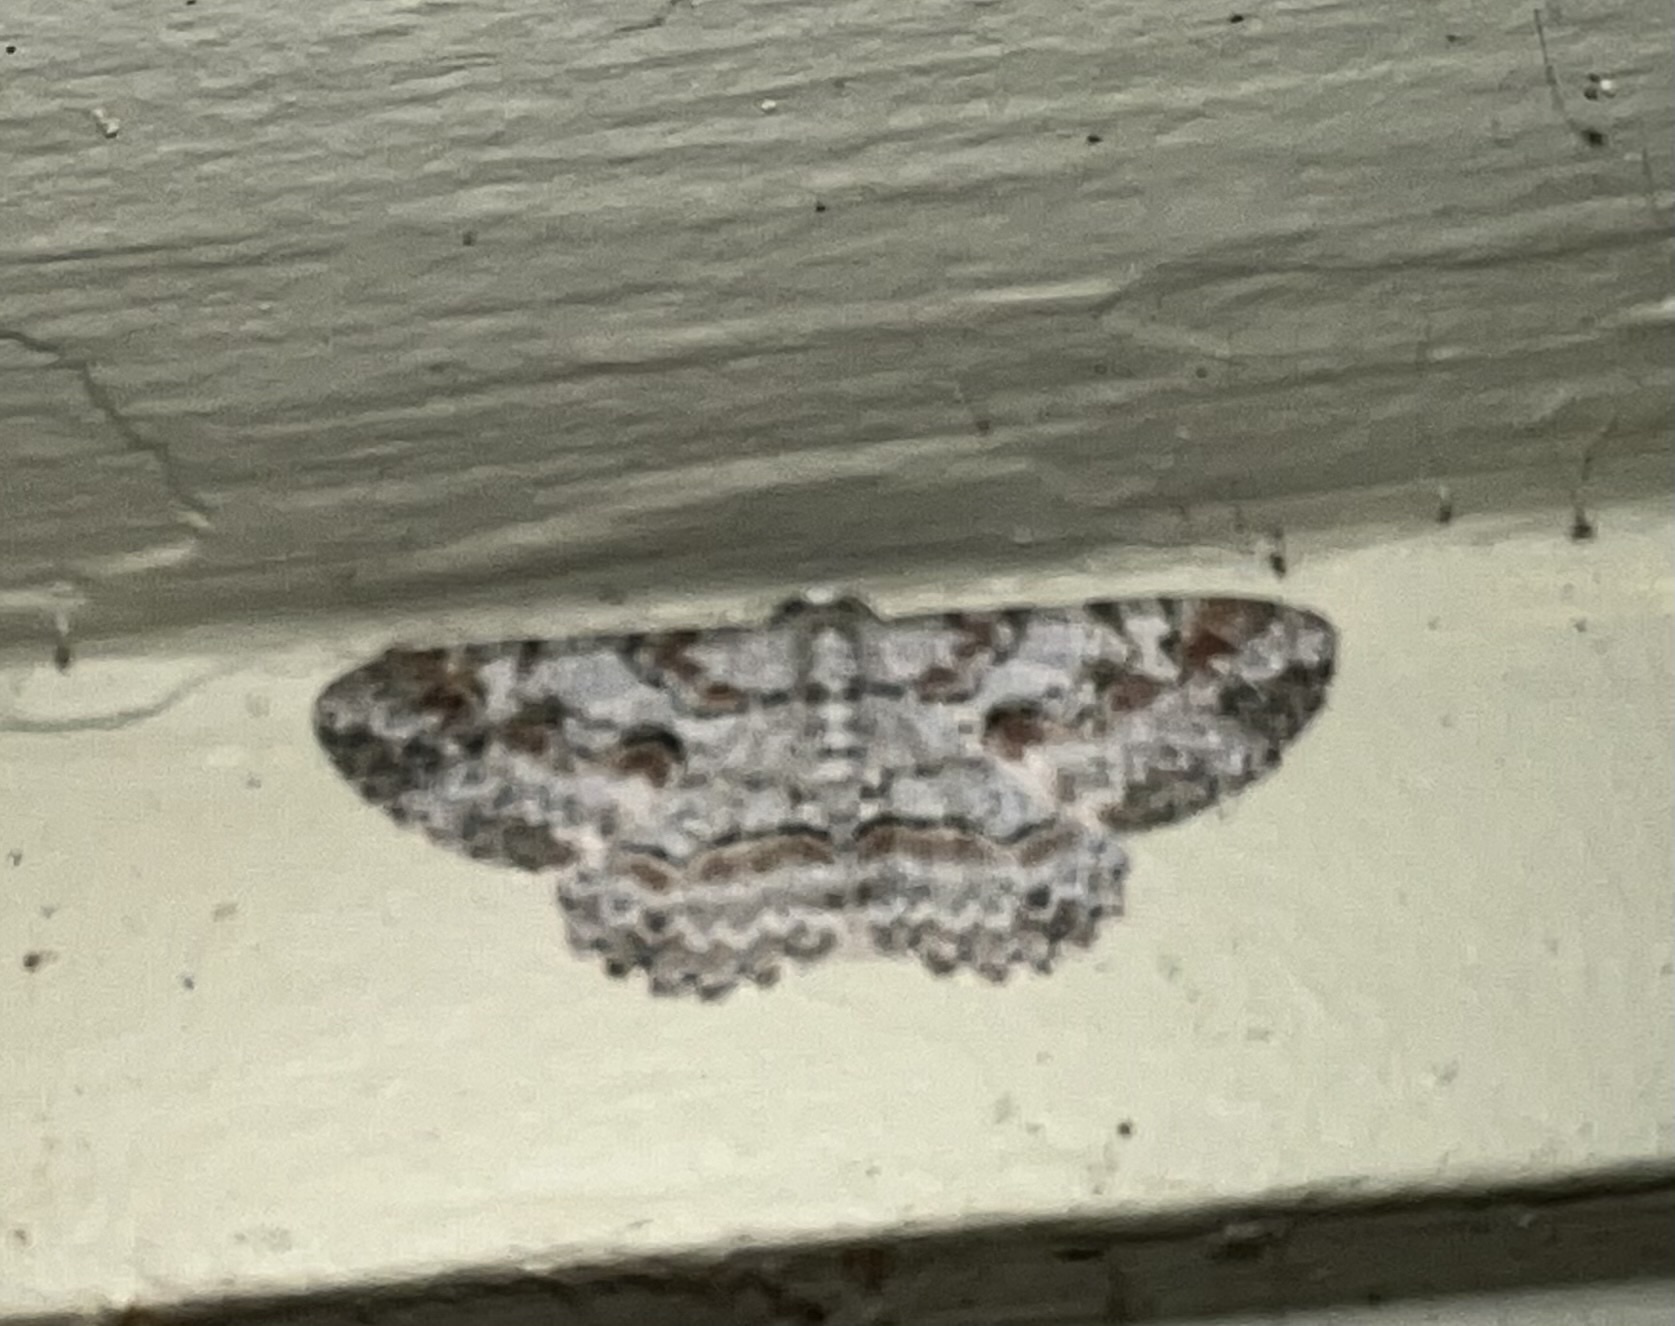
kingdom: Animalia
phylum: Arthropoda
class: Insecta
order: Lepidoptera
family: Geometridae
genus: Iridopsis
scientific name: Iridopsis defectaria
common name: Brown-shaded gray
